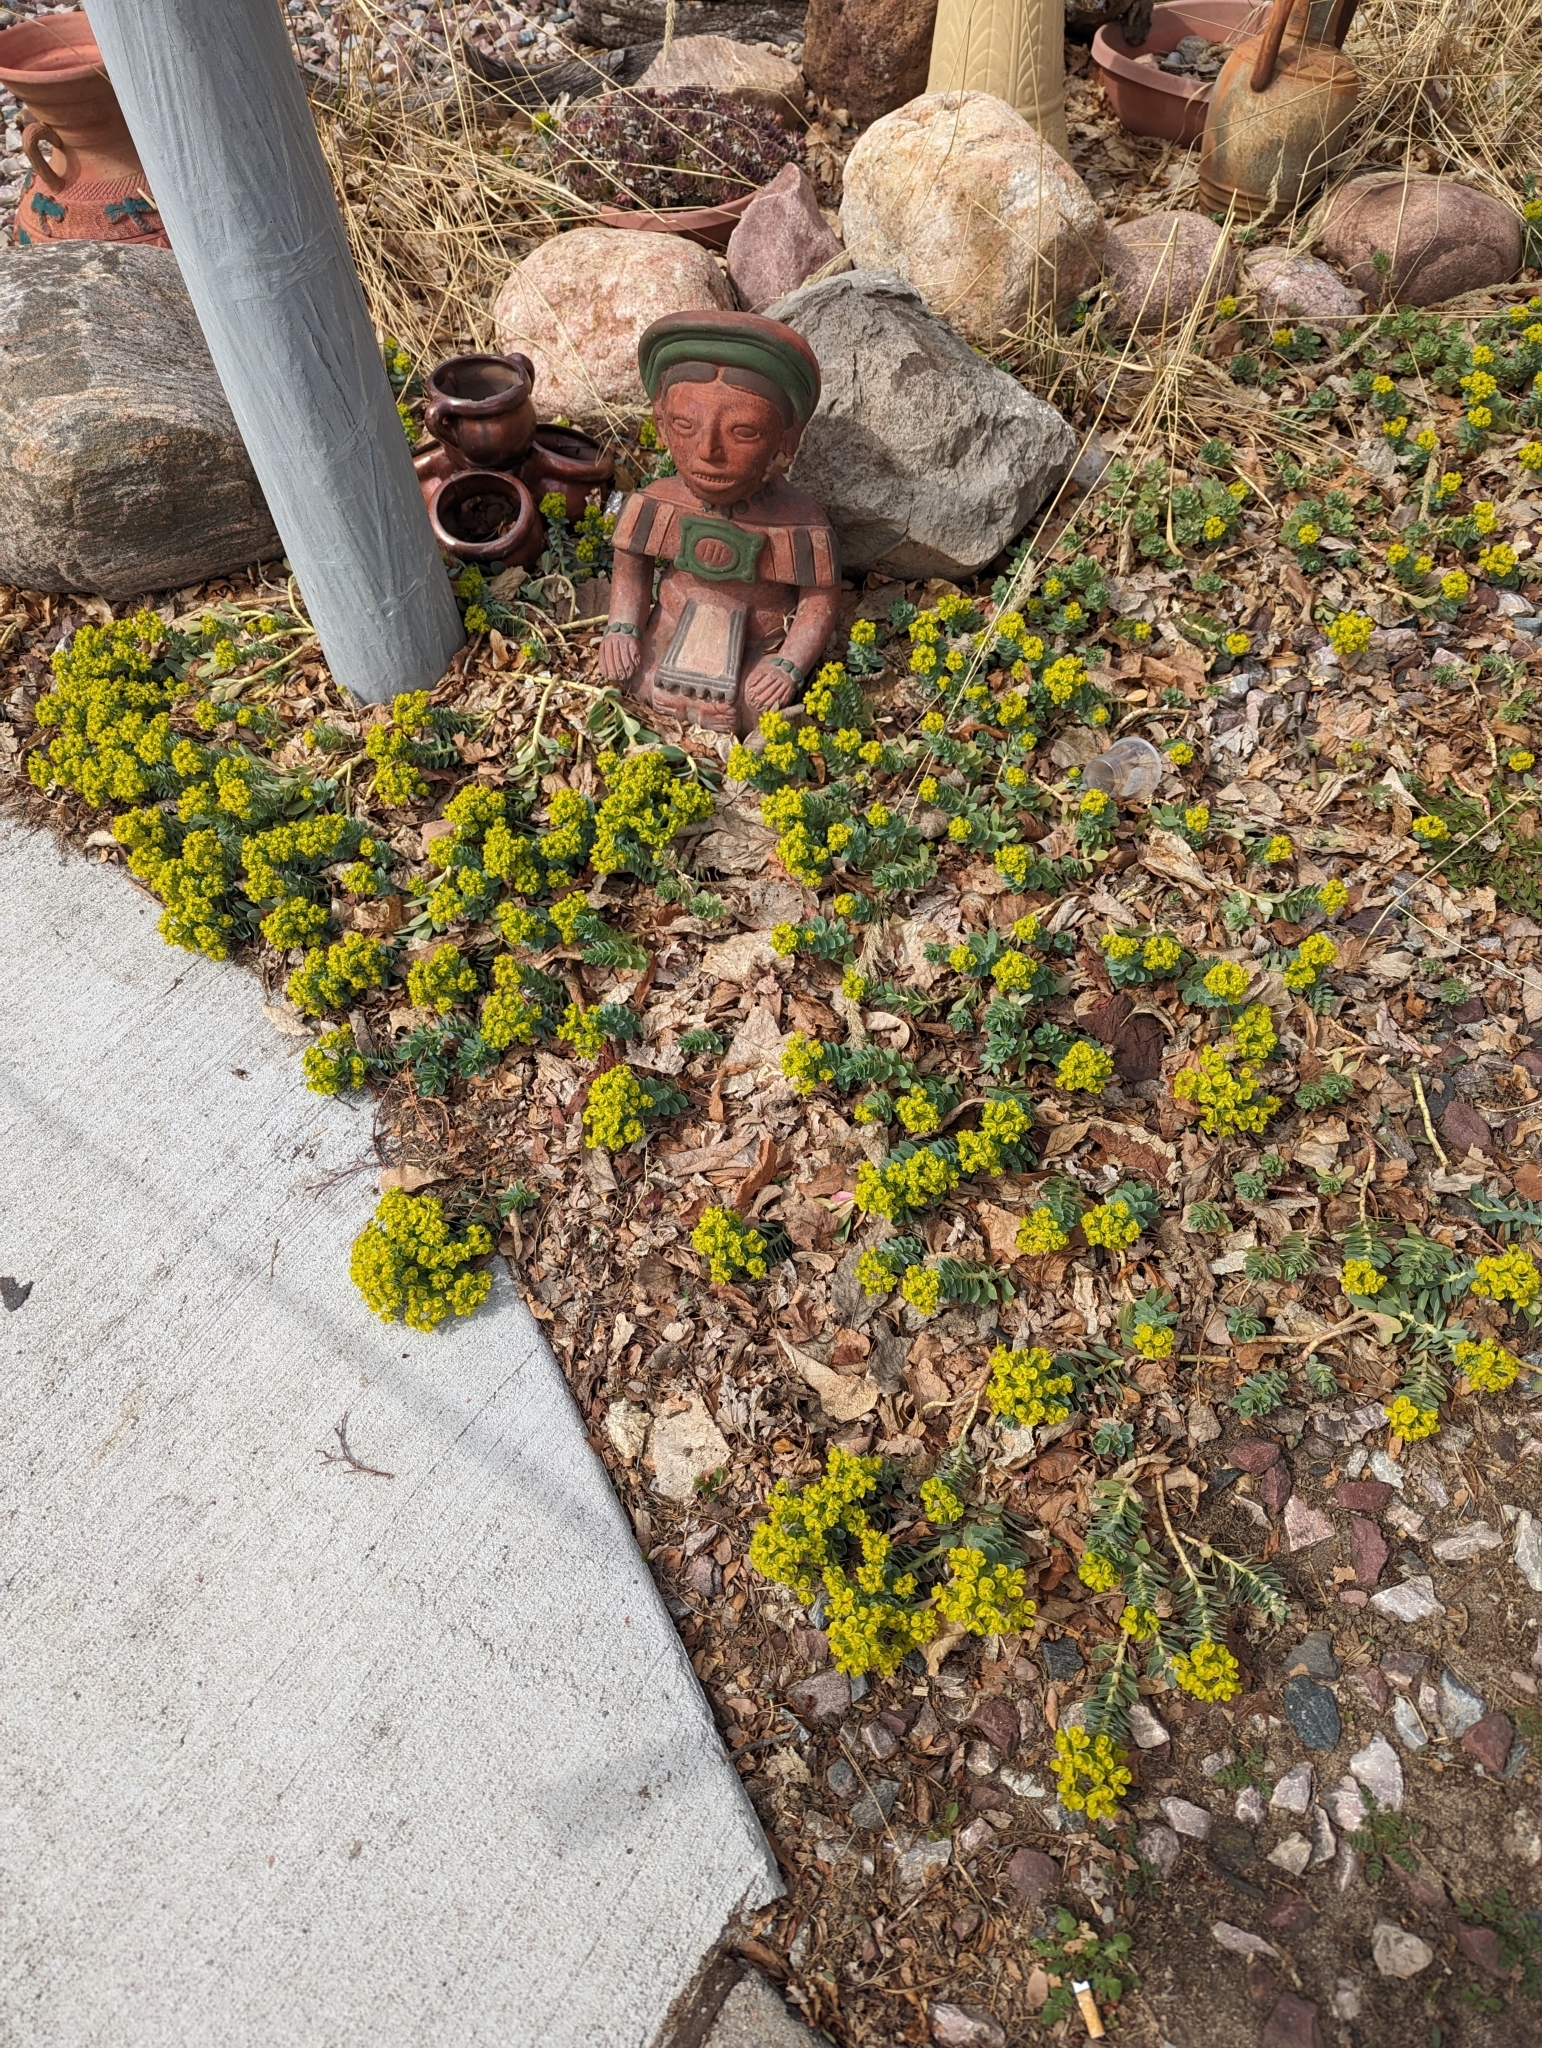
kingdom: Plantae
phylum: Tracheophyta
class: Magnoliopsida
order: Malpighiales
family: Euphorbiaceae
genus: Euphorbia
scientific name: Euphorbia myrsinites
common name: Myrtle spurge
